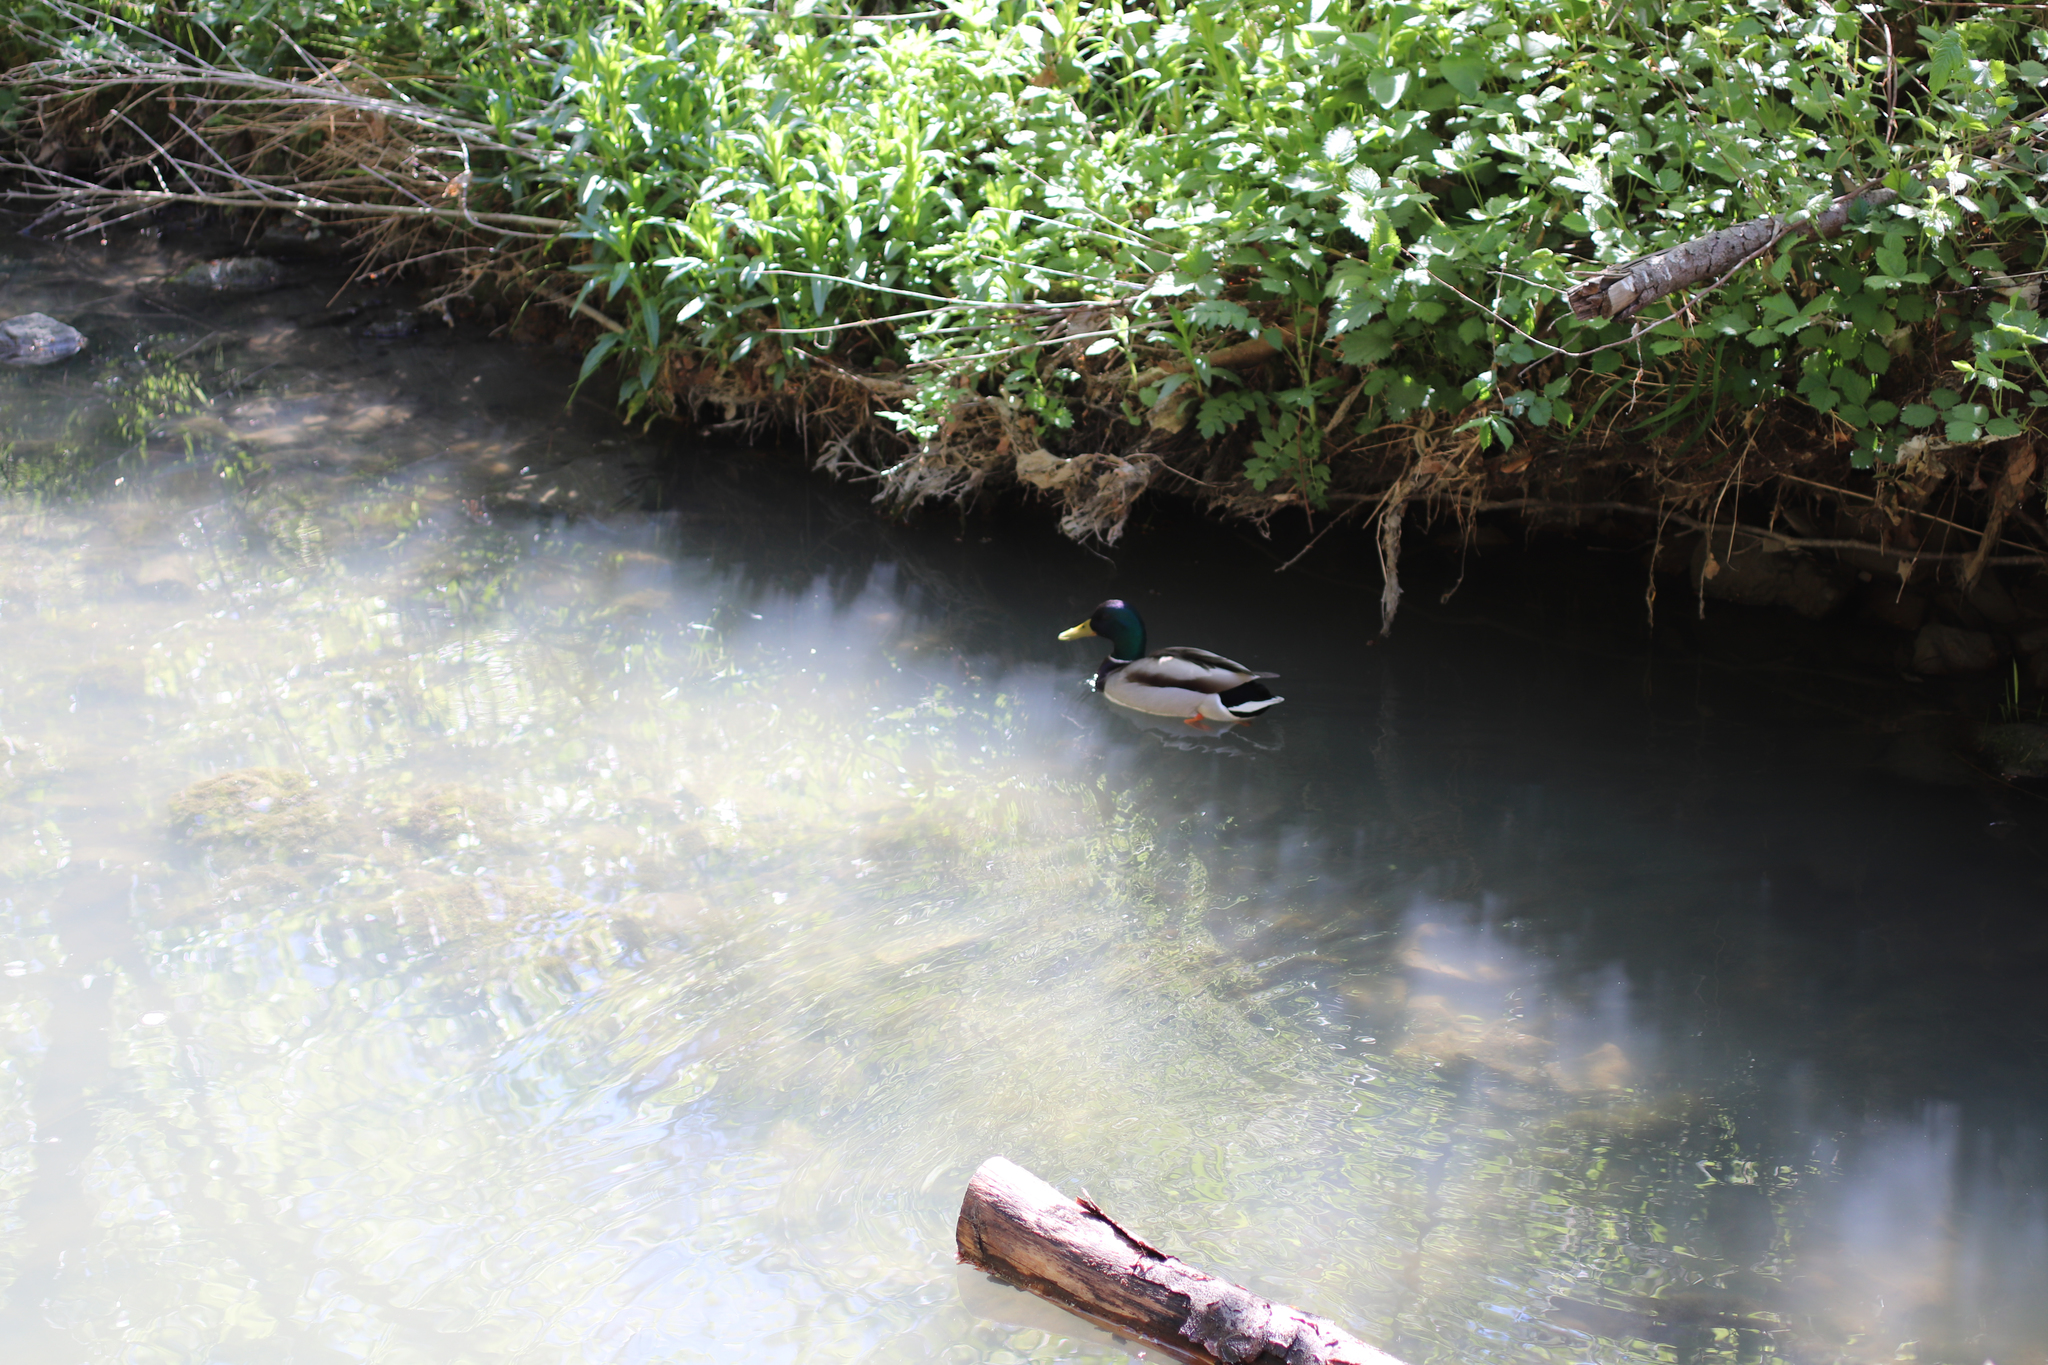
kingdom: Animalia
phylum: Chordata
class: Aves
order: Anseriformes
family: Anatidae
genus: Anas
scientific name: Anas platyrhynchos
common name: Mallard
